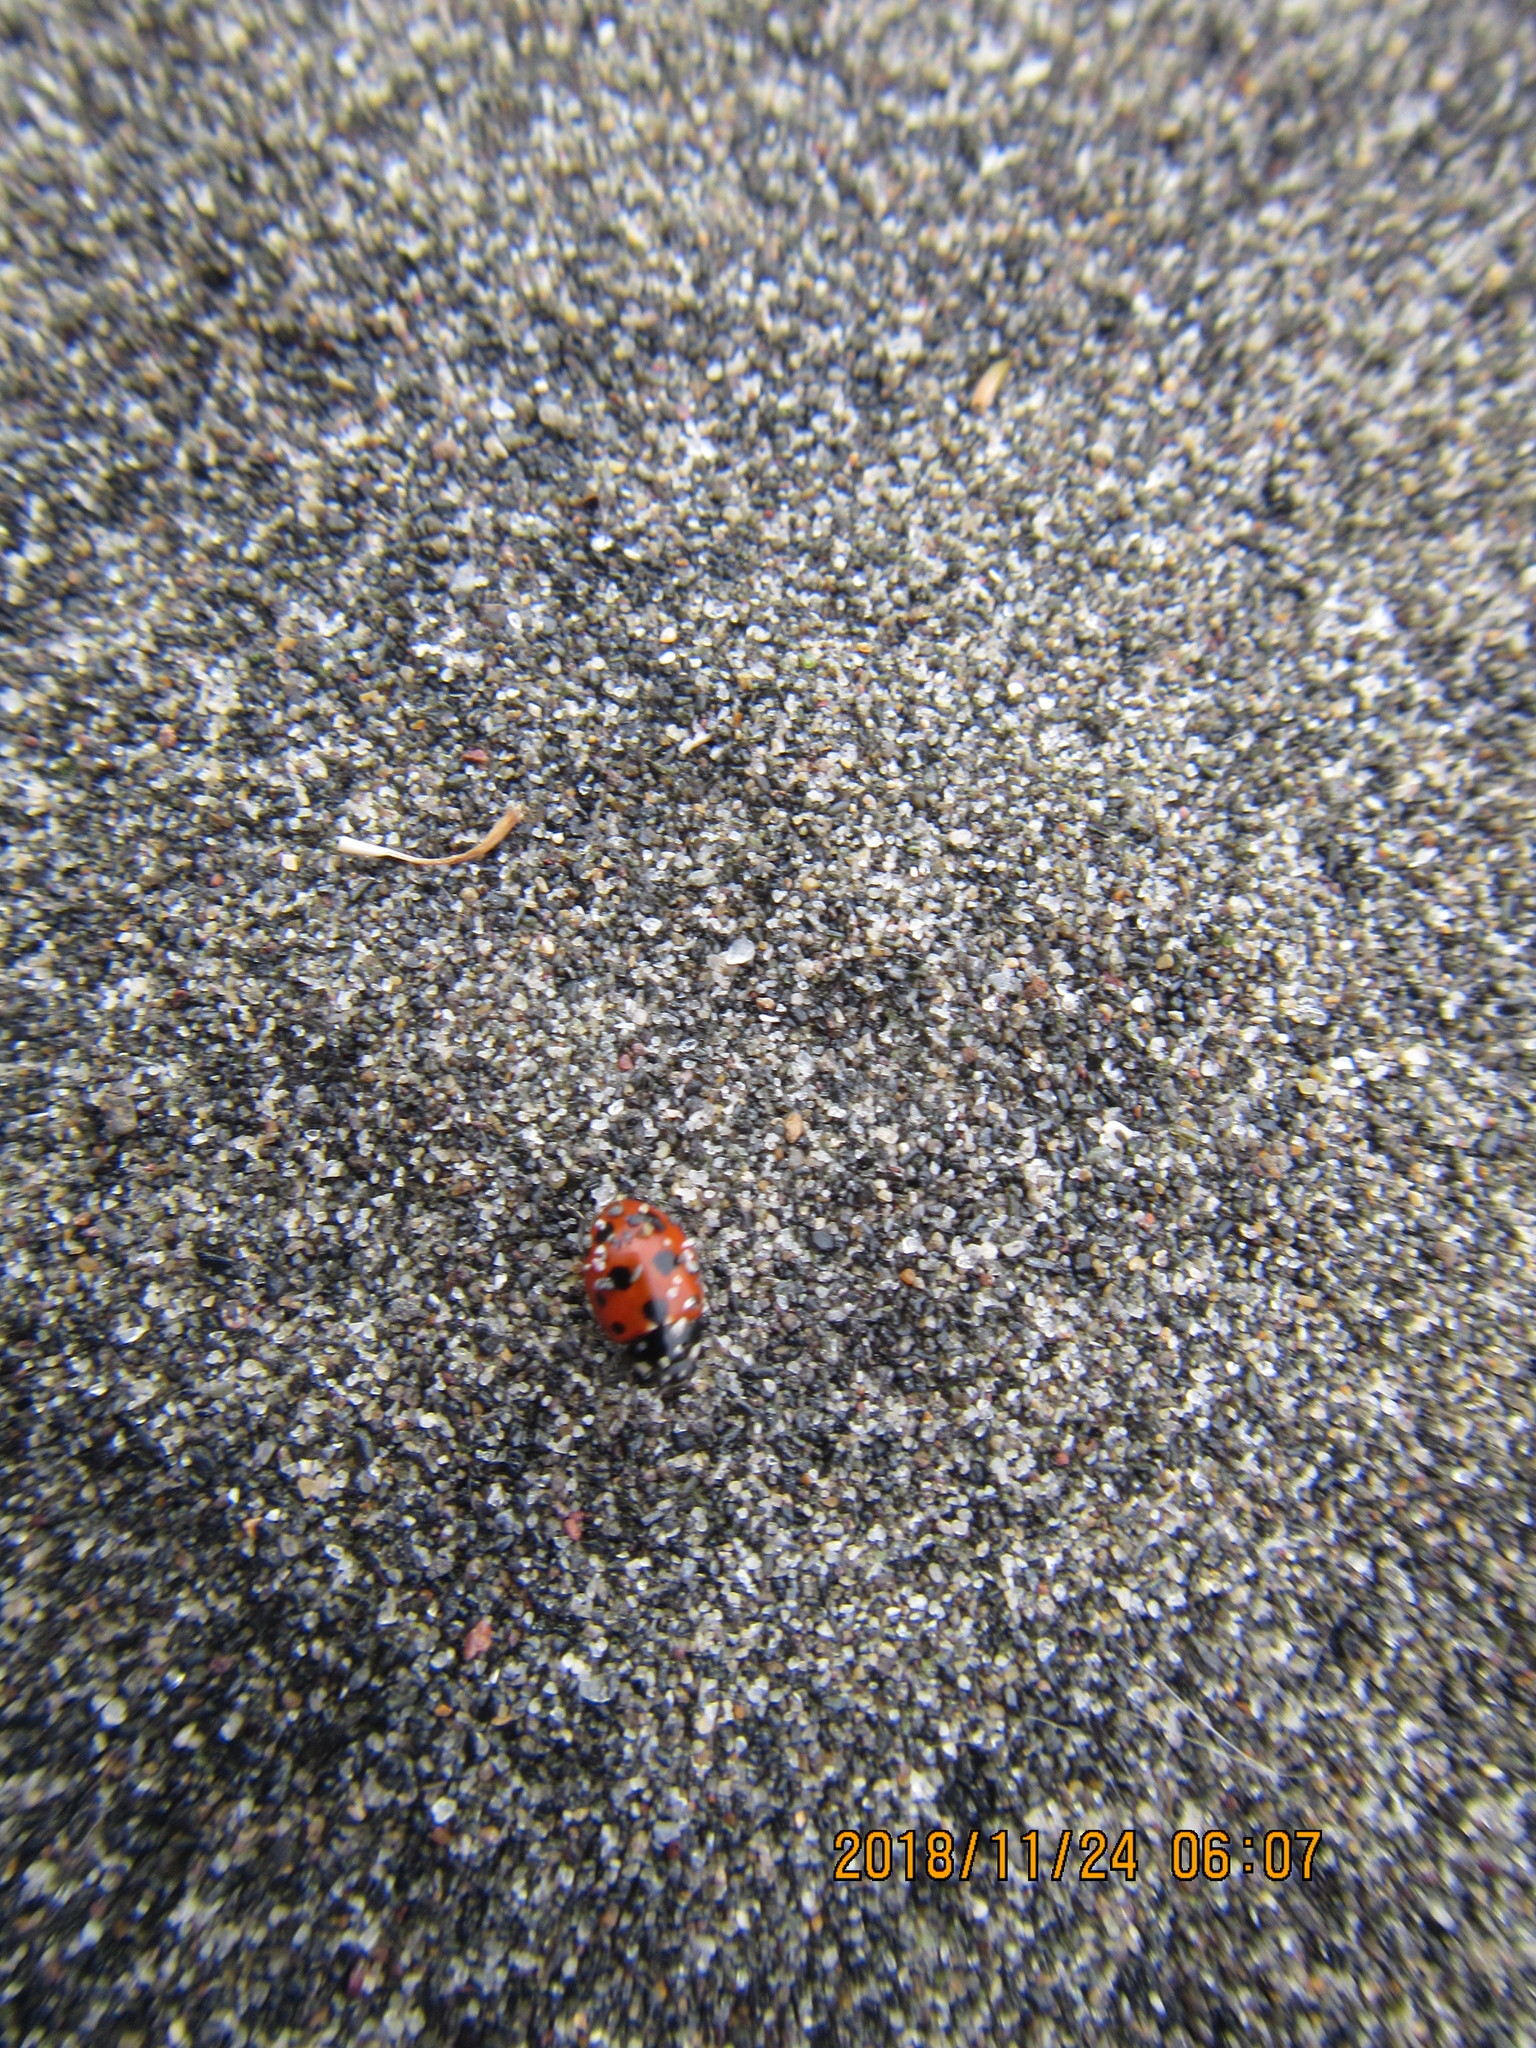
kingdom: Animalia
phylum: Arthropoda
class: Insecta
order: Coleoptera
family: Coccinellidae
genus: Coccinella
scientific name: Coccinella undecimpunctata
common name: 11-spot ladybird
